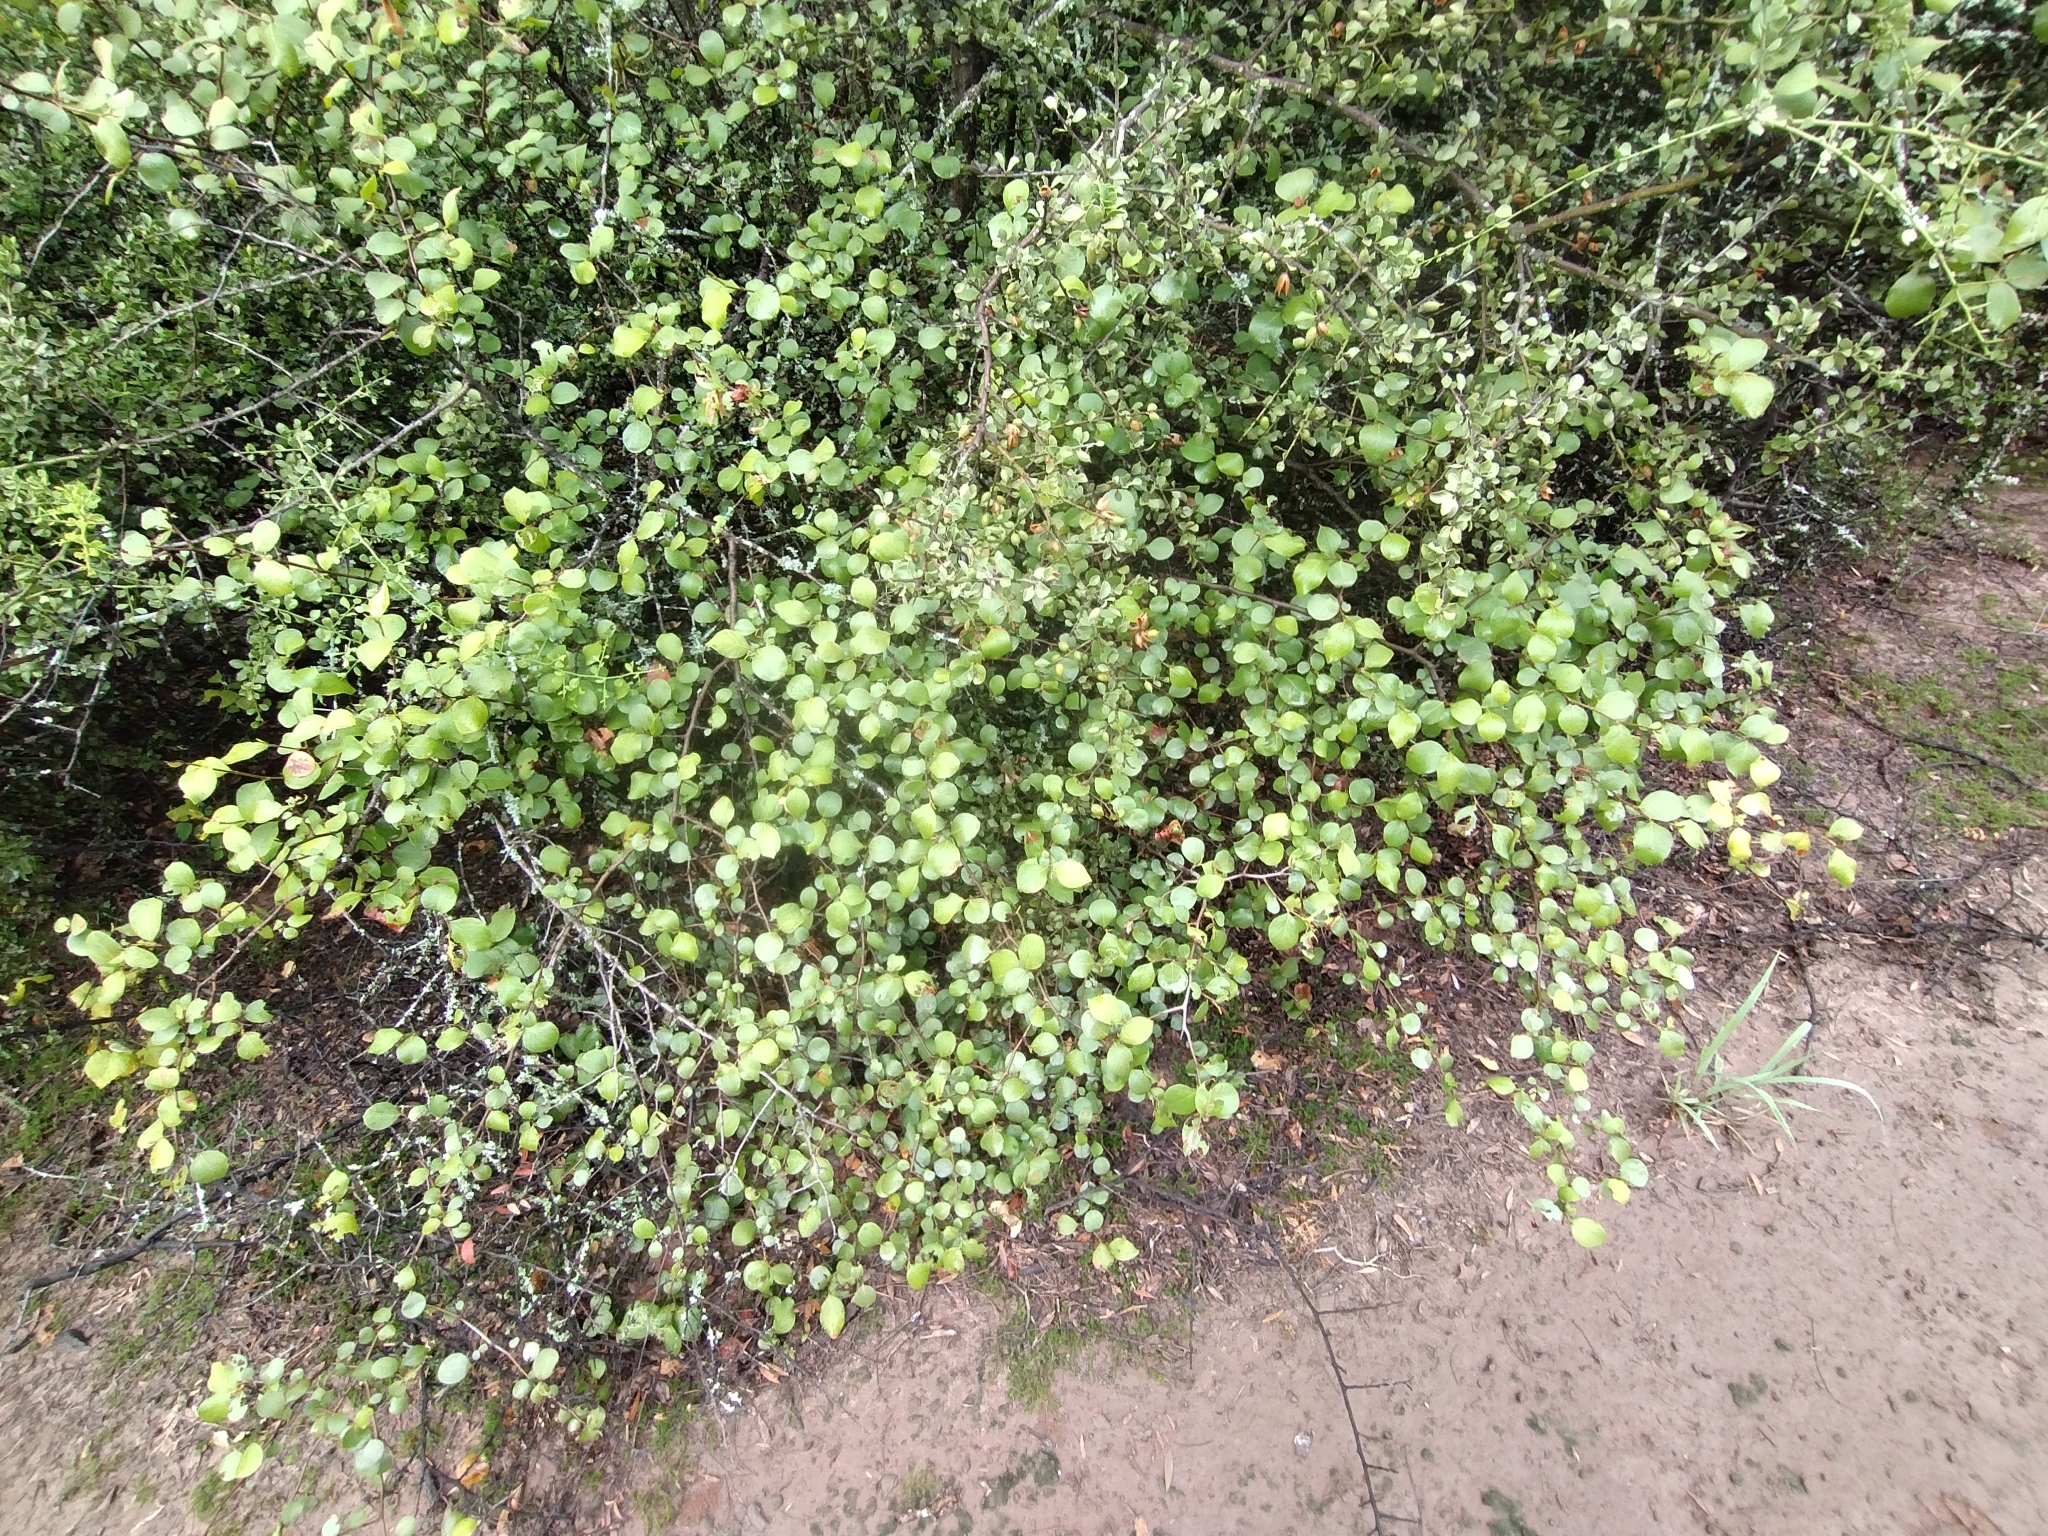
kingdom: Plantae
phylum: Tracheophyta
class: Magnoliopsida
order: Brassicales
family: Capparaceae
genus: Cynophalla
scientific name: Cynophalla retusa
